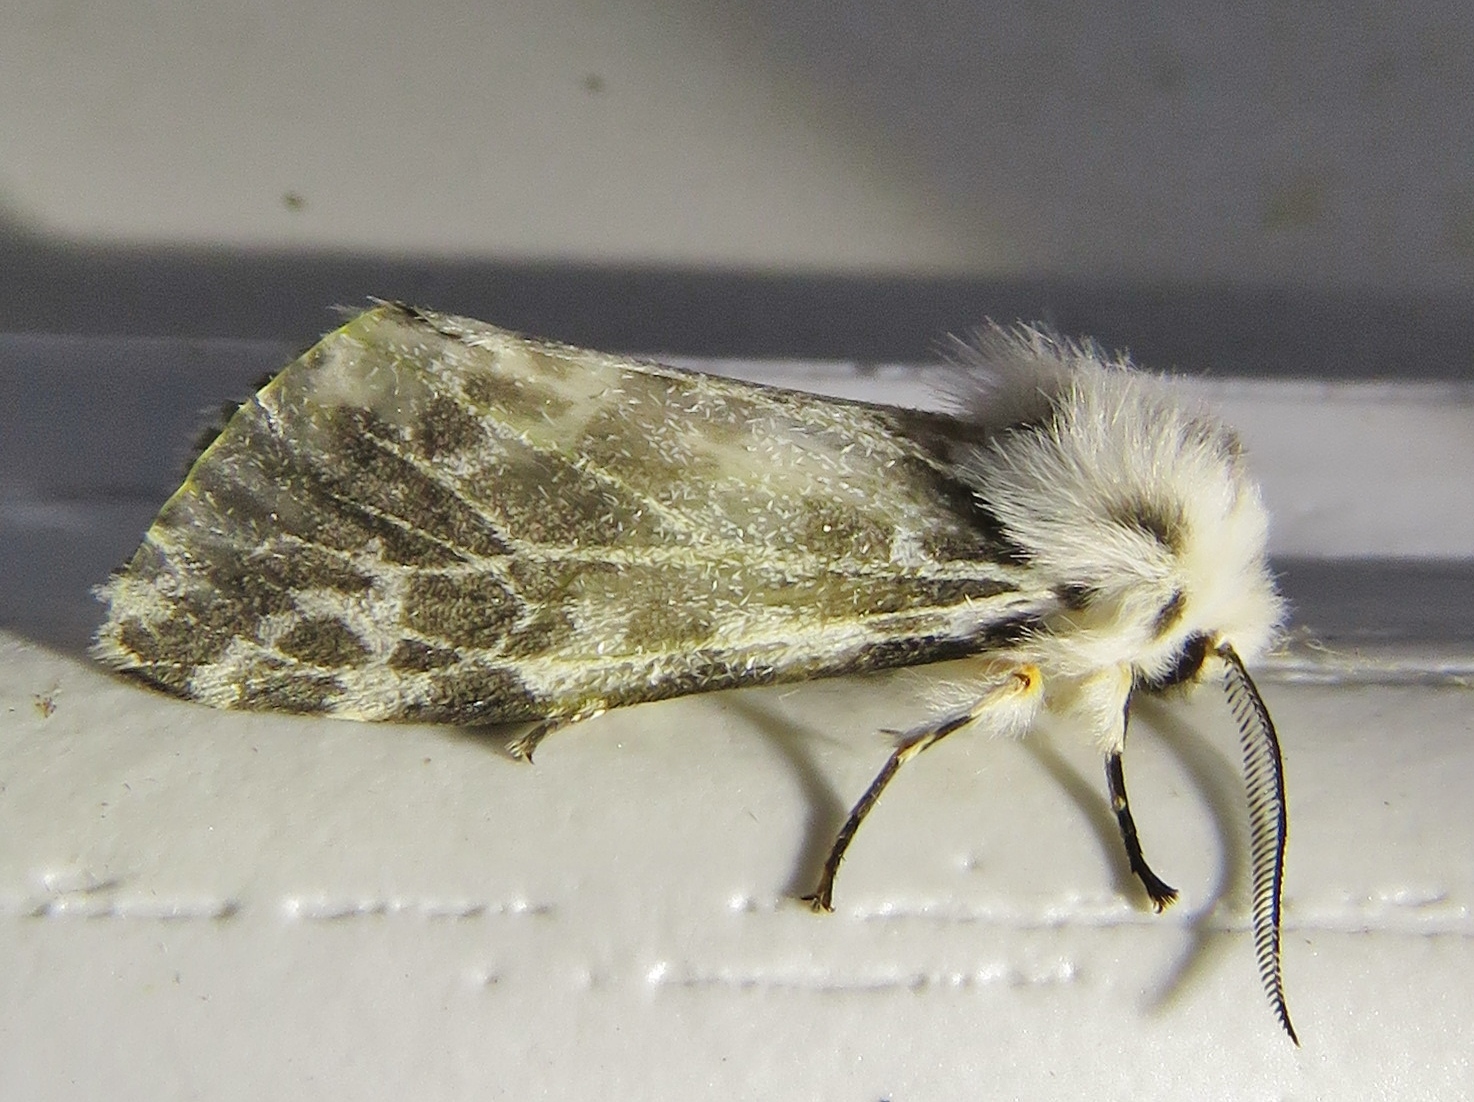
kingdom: Animalia
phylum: Arthropoda
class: Insecta
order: Lepidoptera
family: Erebidae
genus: Hyphantria
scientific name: Hyphantria cunea
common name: American white moth
